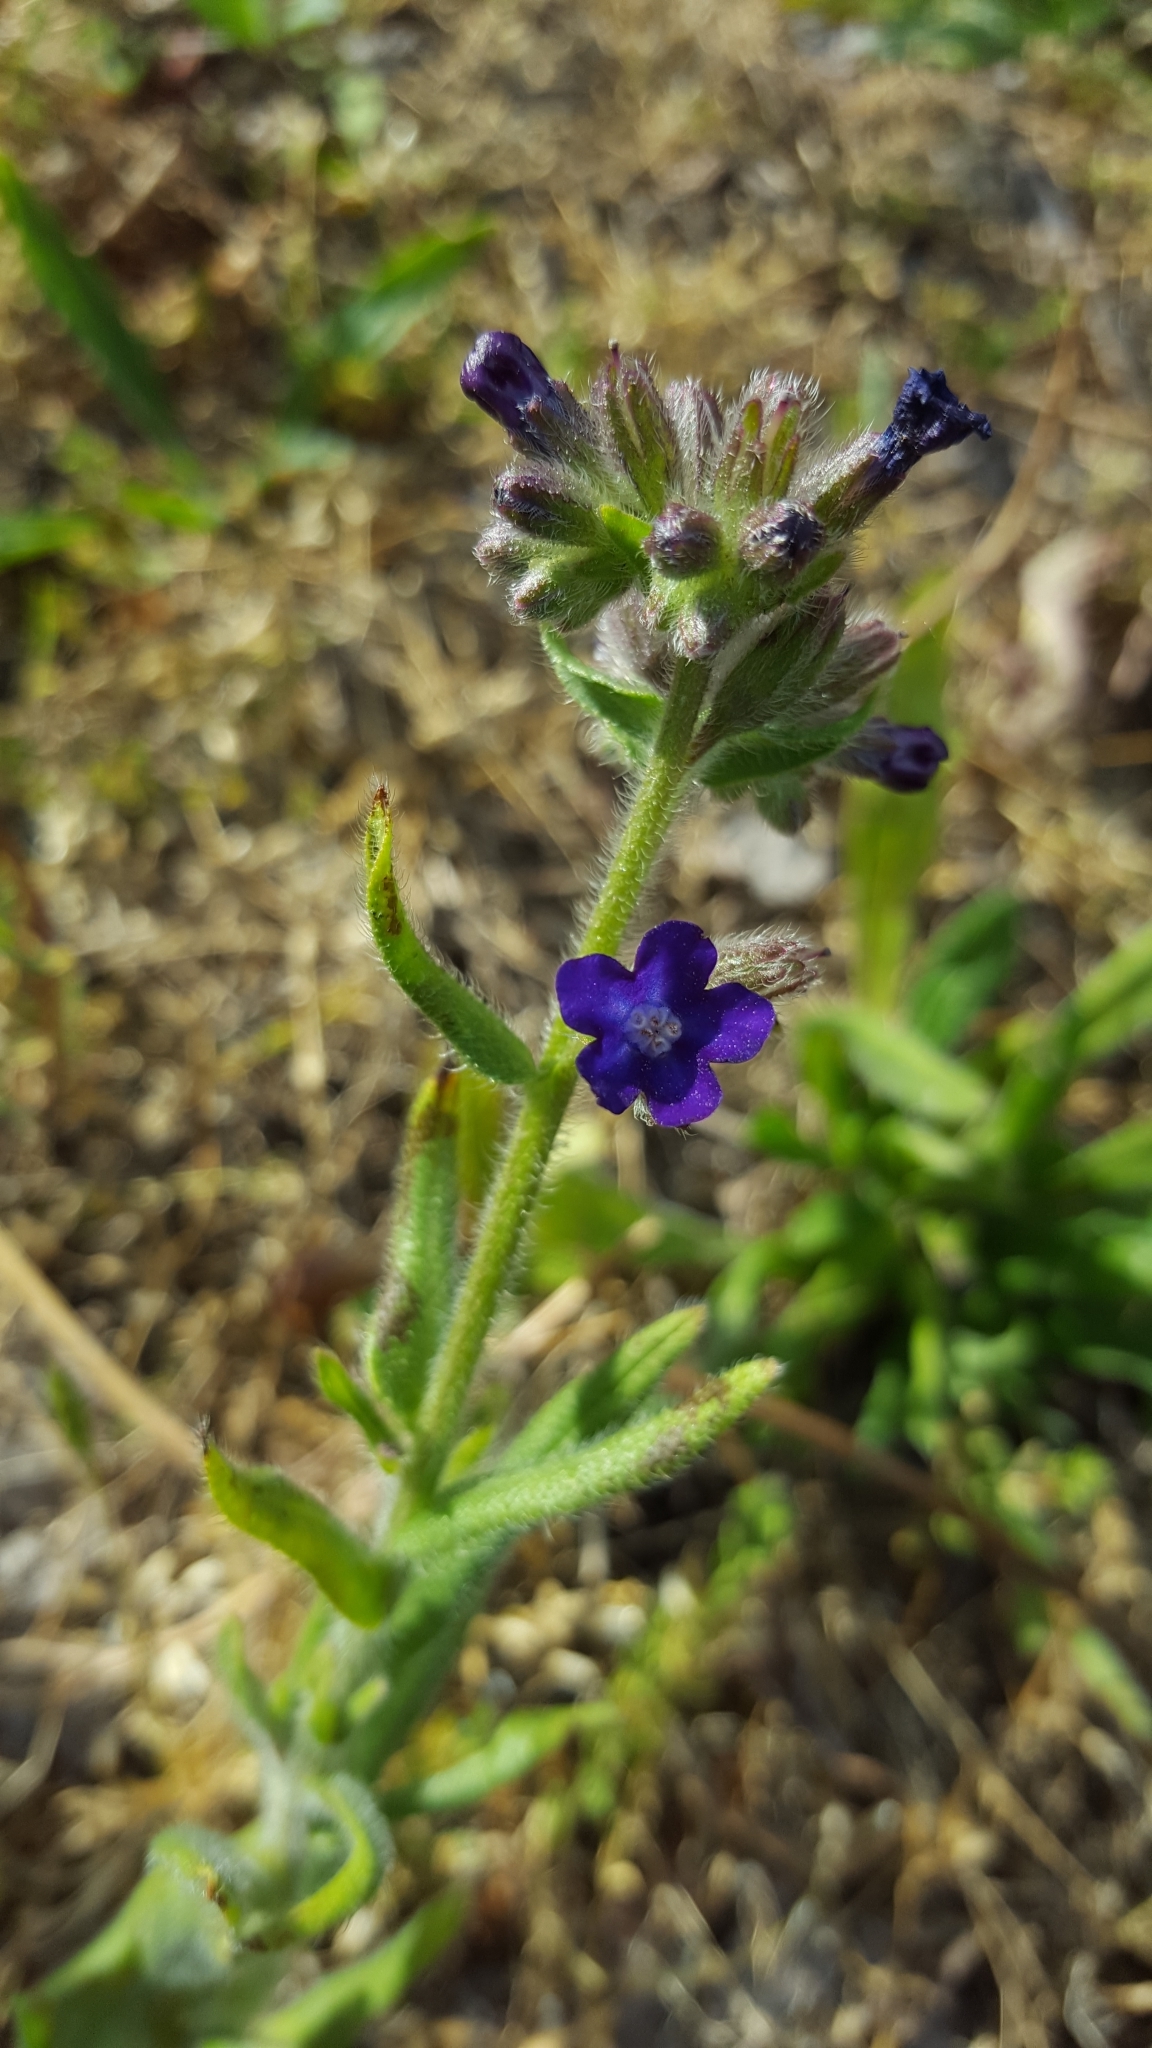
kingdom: Plantae
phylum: Tracheophyta
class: Magnoliopsida
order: Boraginales
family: Boraginaceae
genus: Anchusa
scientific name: Anchusa officinalis
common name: Alkanet
